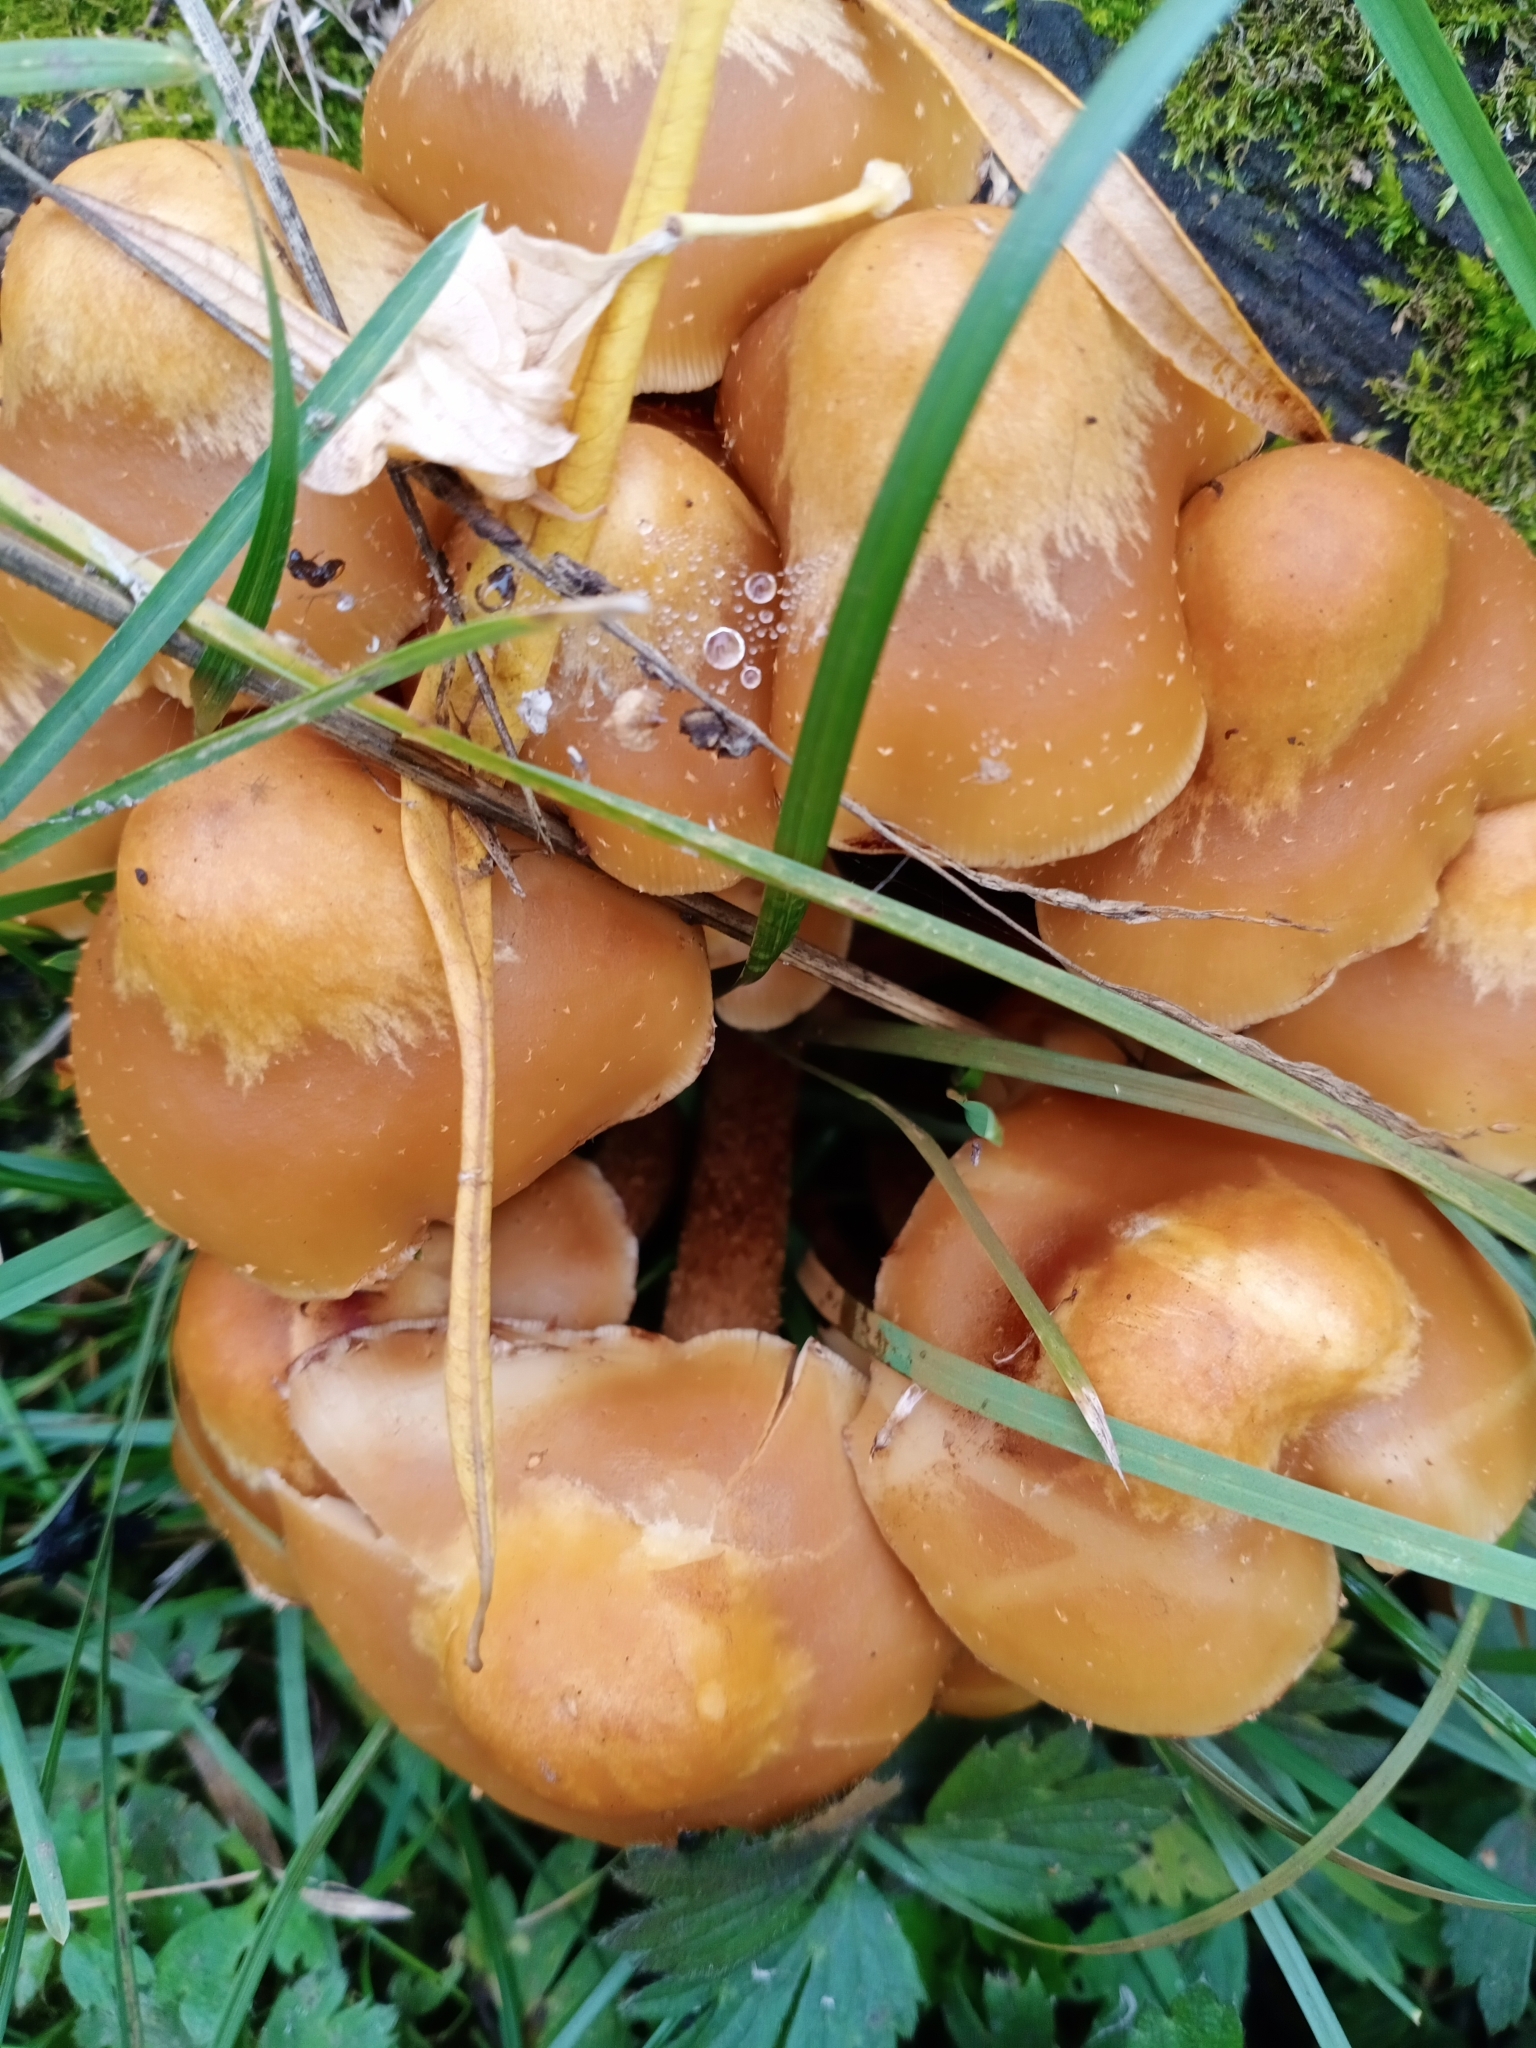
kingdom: Fungi
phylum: Basidiomycota
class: Agaricomycetes
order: Agaricales
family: Strophariaceae
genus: Kuehneromyces
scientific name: Kuehneromyces mutabilis
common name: Sheathed woodtuft
